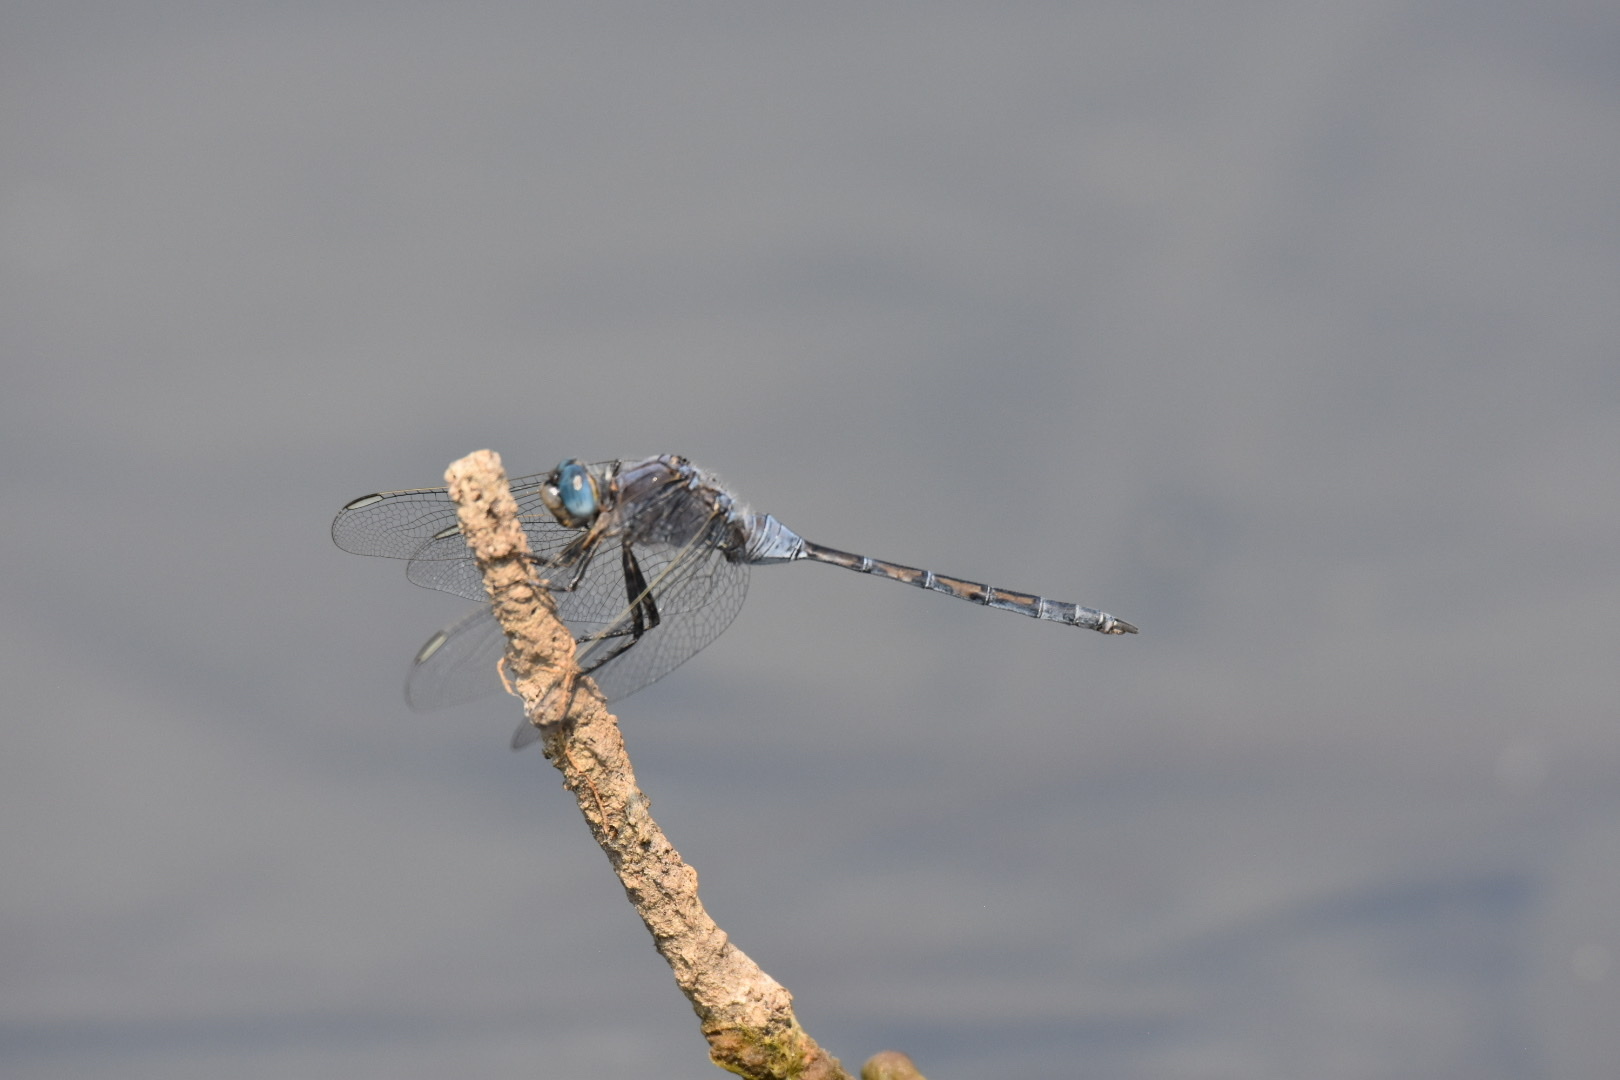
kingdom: Animalia
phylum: Arthropoda
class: Insecta
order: Odonata
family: Libellulidae
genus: Orthetrum
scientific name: Orthetrum trinacria
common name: Long skimmer
